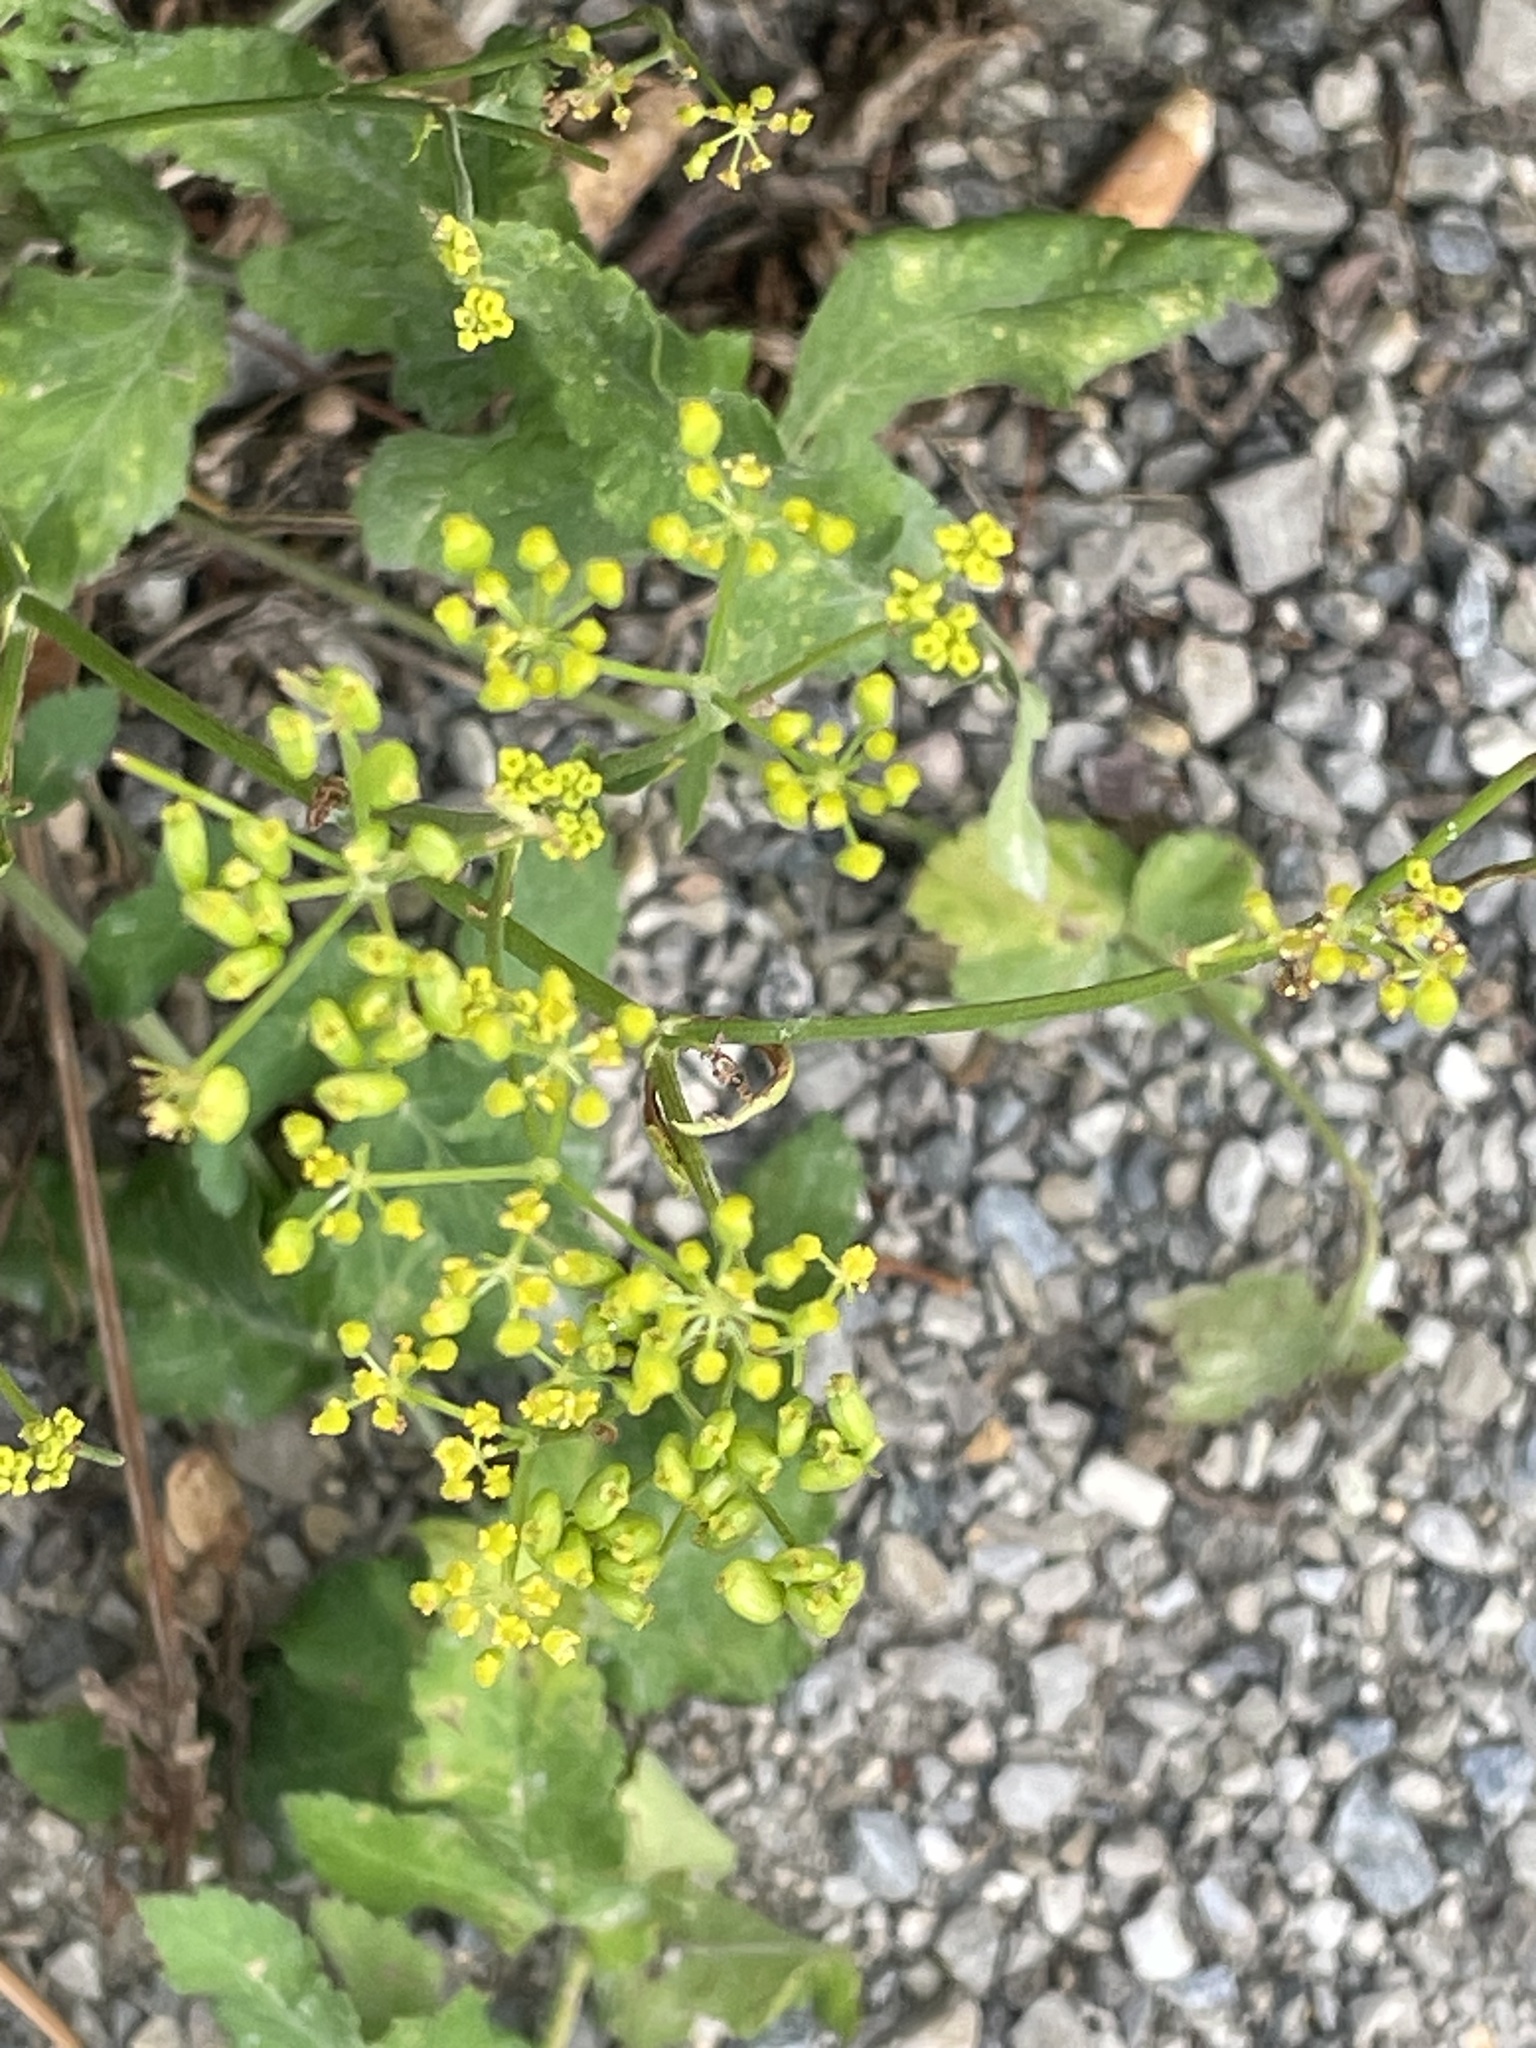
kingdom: Plantae
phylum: Tracheophyta
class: Magnoliopsida
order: Apiales
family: Apiaceae
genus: Pastinaca
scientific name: Pastinaca sativa
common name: Wild parsnip
